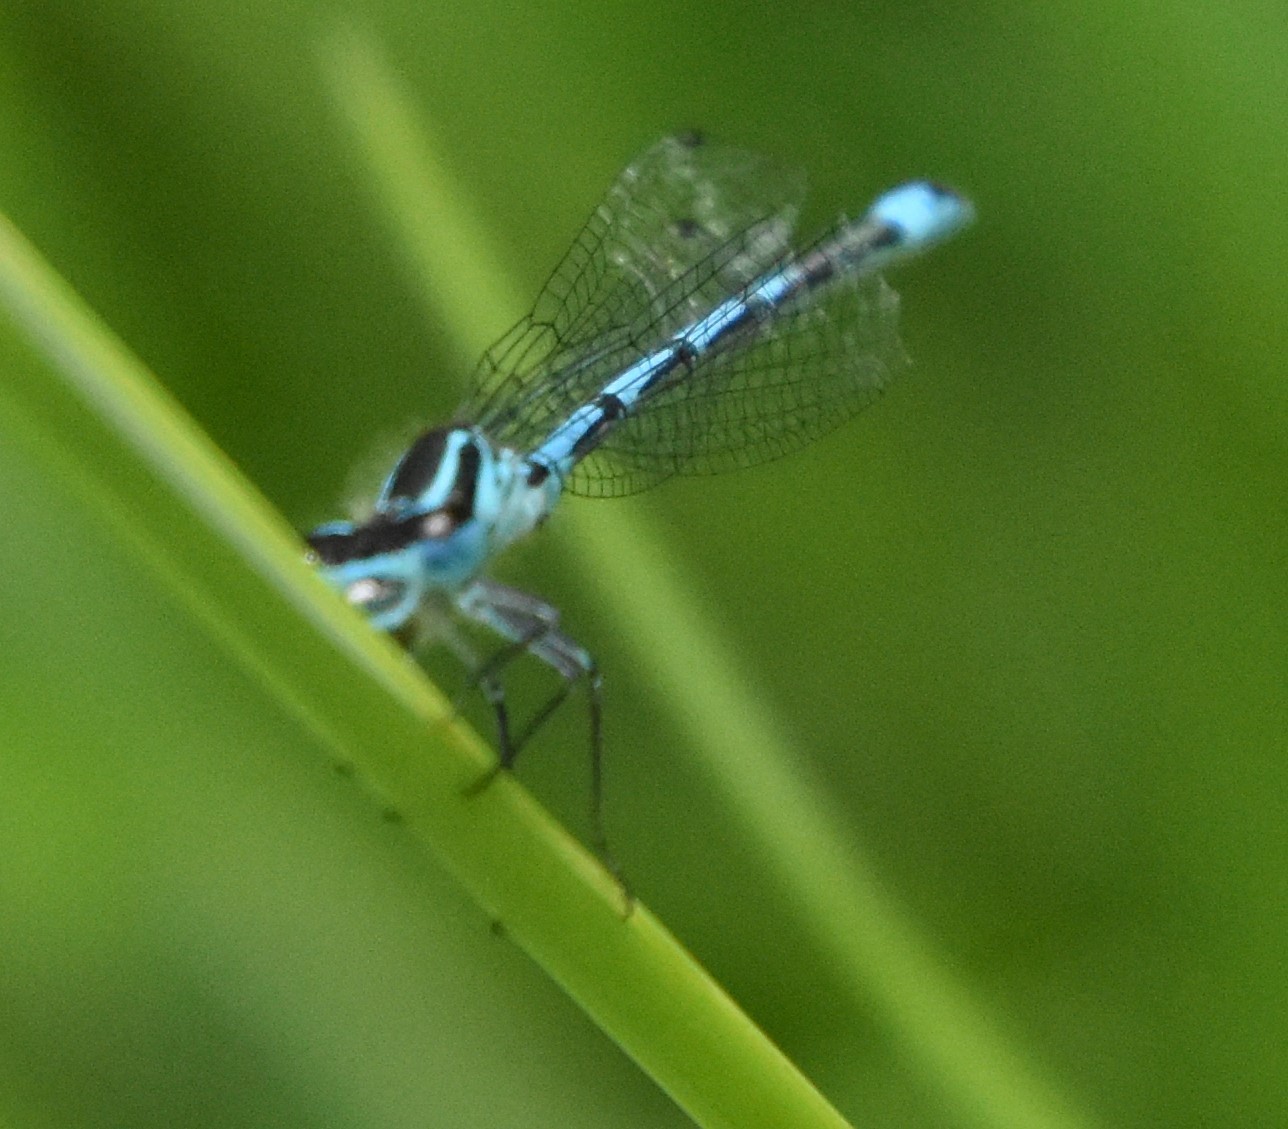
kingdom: Animalia
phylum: Arthropoda
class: Insecta
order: Odonata
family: Coenagrionidae
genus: Coenagrion
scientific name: Coenagrion puella
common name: Azure damselfly
